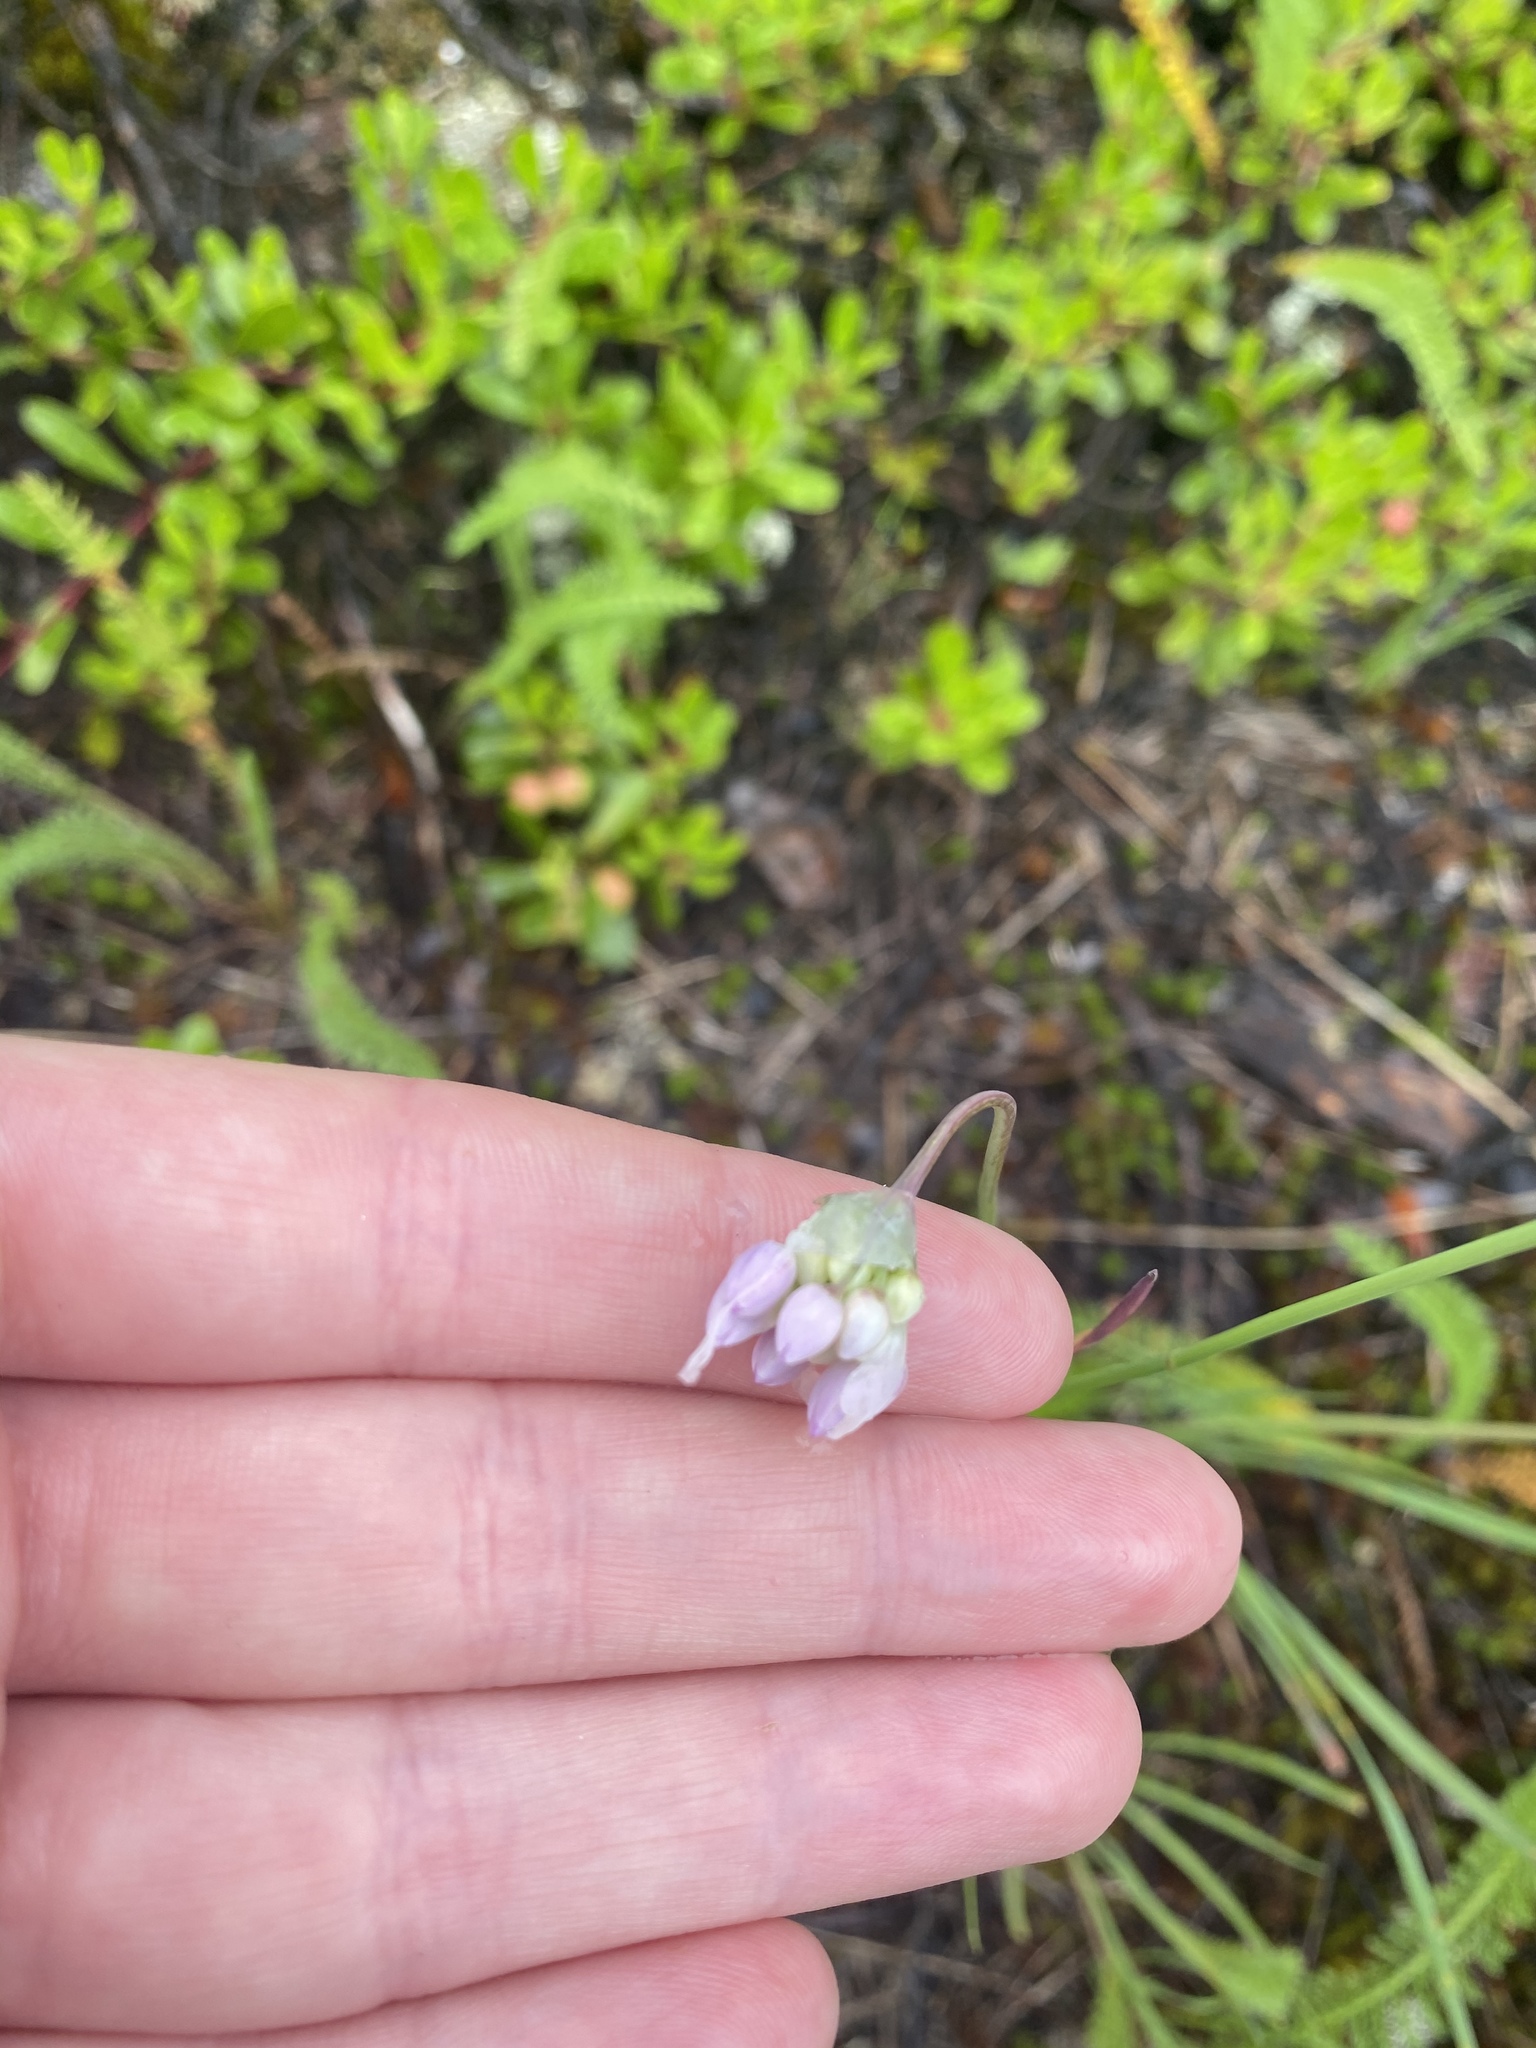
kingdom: Plantae
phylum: Tracheophyta
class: Liliopsida
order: Asparagales
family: Amaryllidaceae
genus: Allium
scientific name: Allium cernuum
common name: Nodding onion
